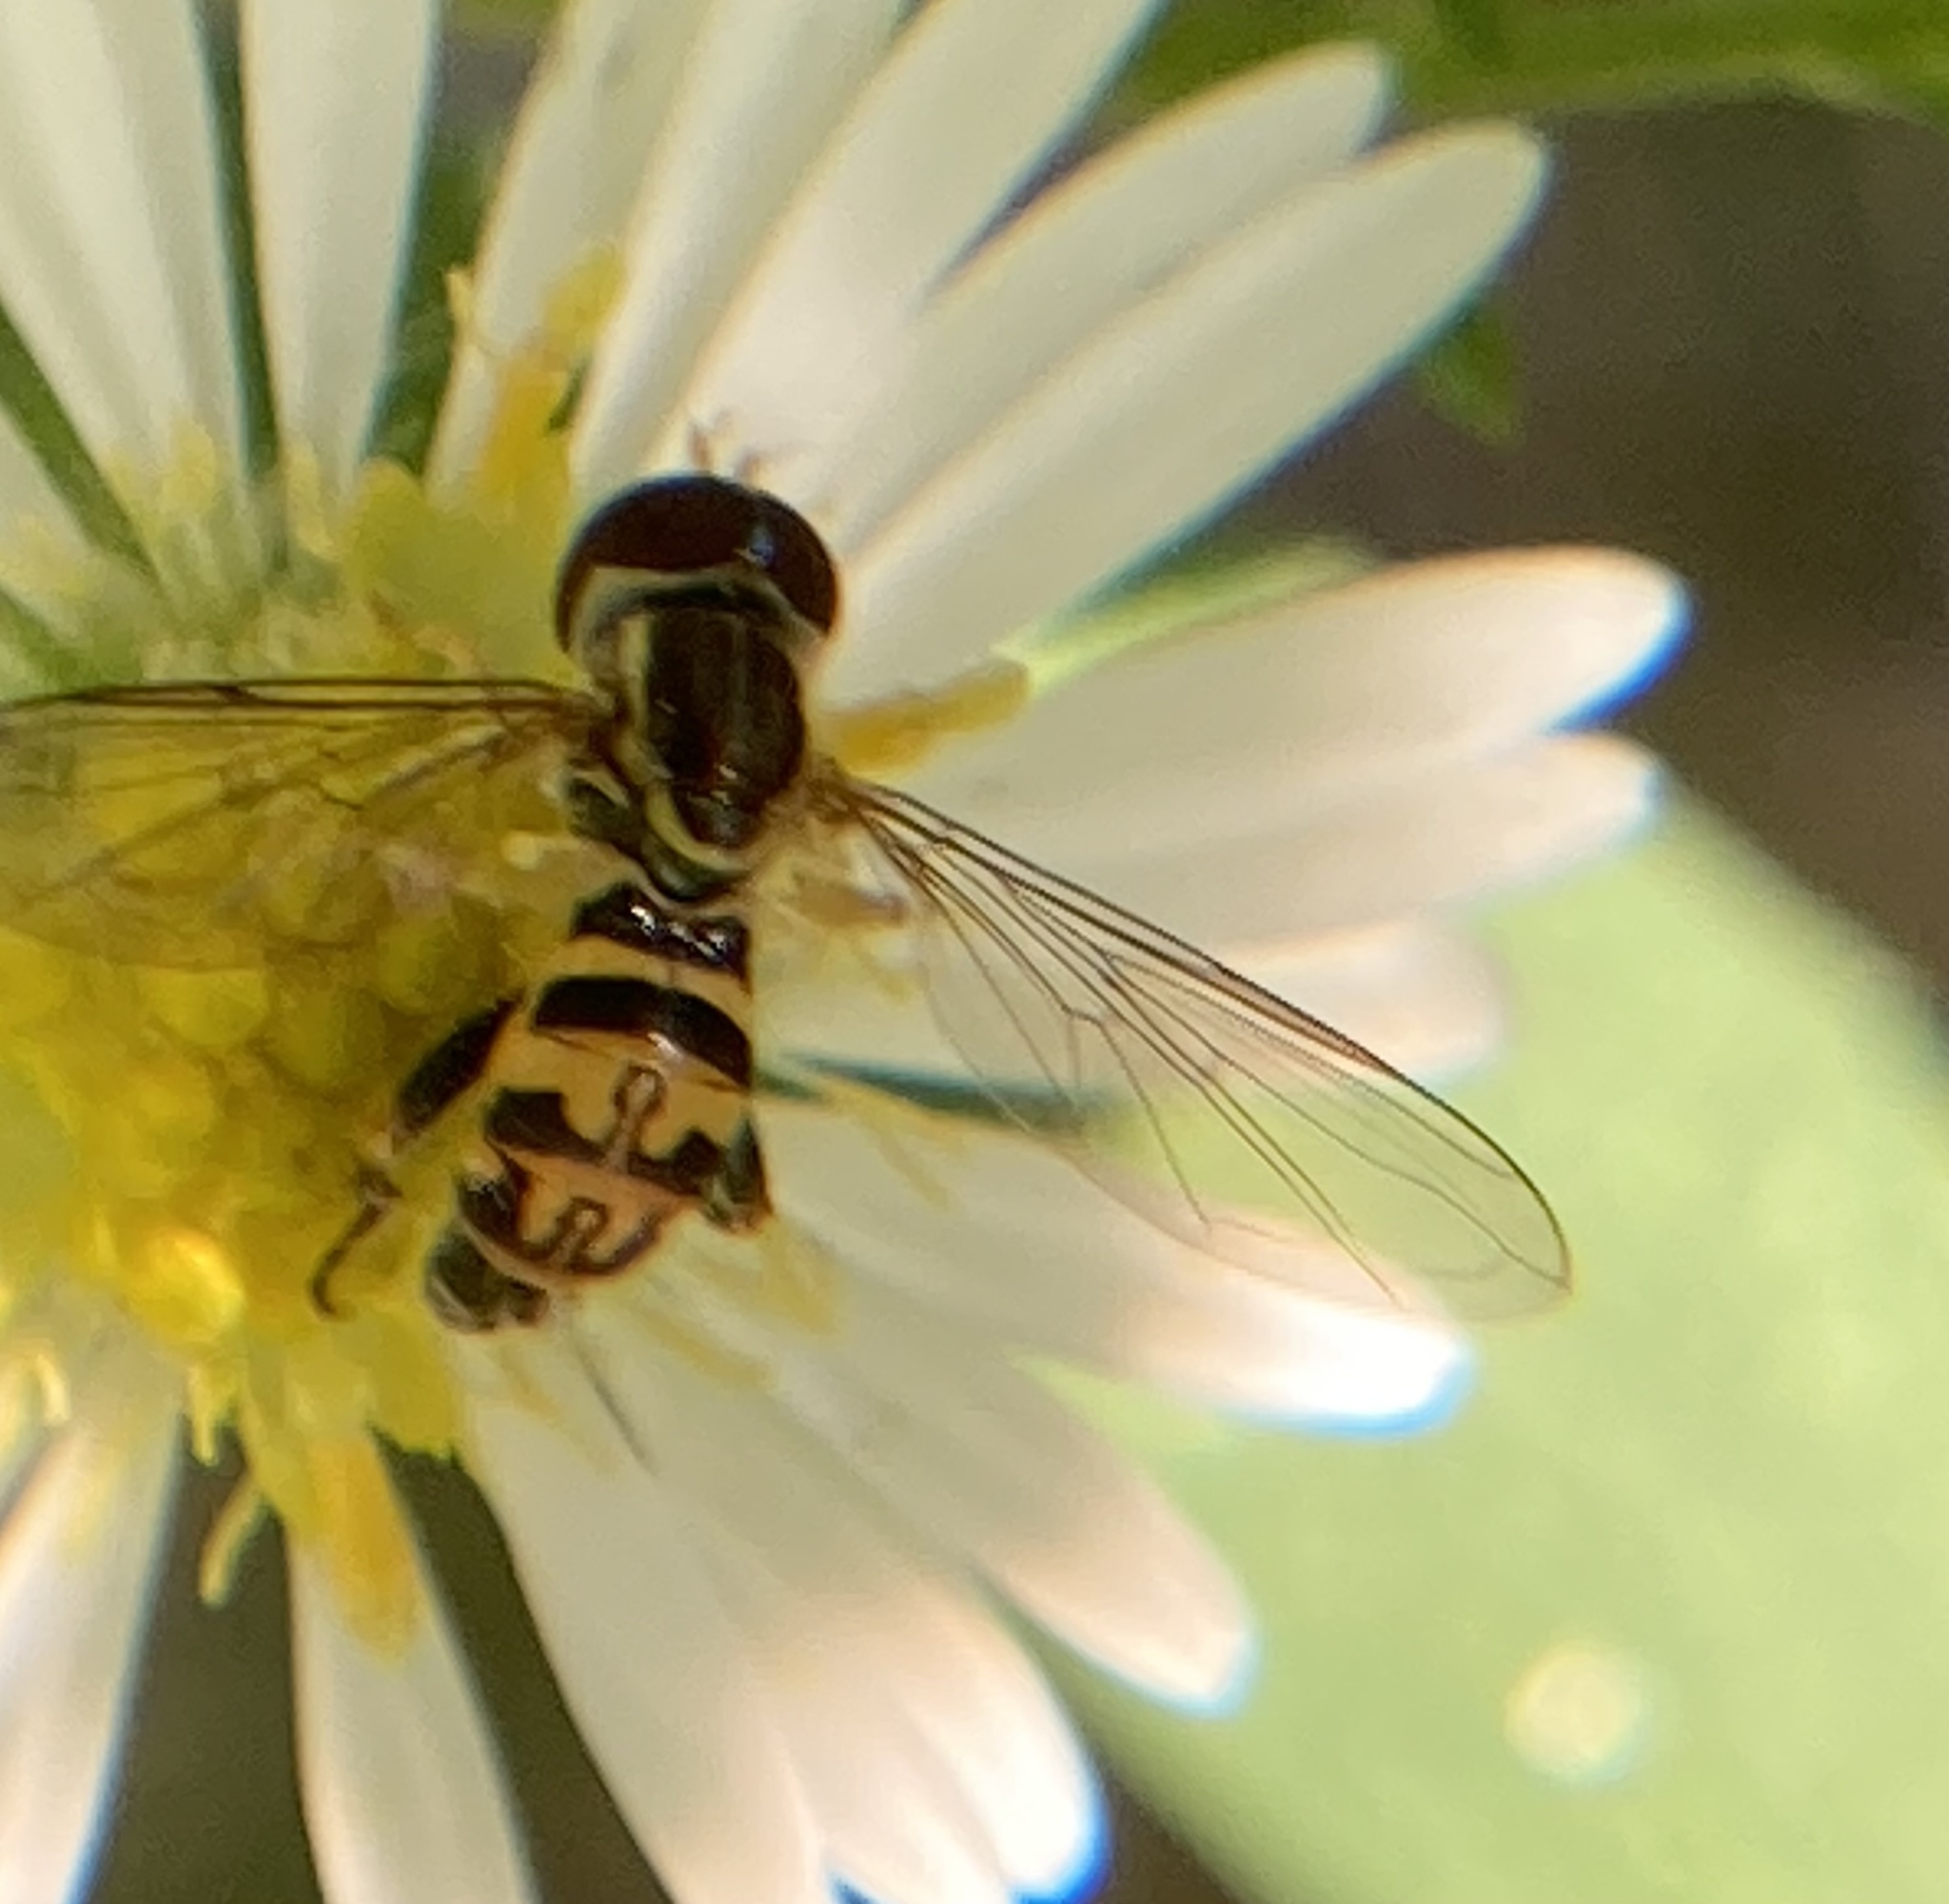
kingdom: Animalia
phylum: Arthropoda
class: Insecta
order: Diptera
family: Syrphidae
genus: Toxomerus
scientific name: Toxomerus geminatus
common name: Eastern calligrapher
